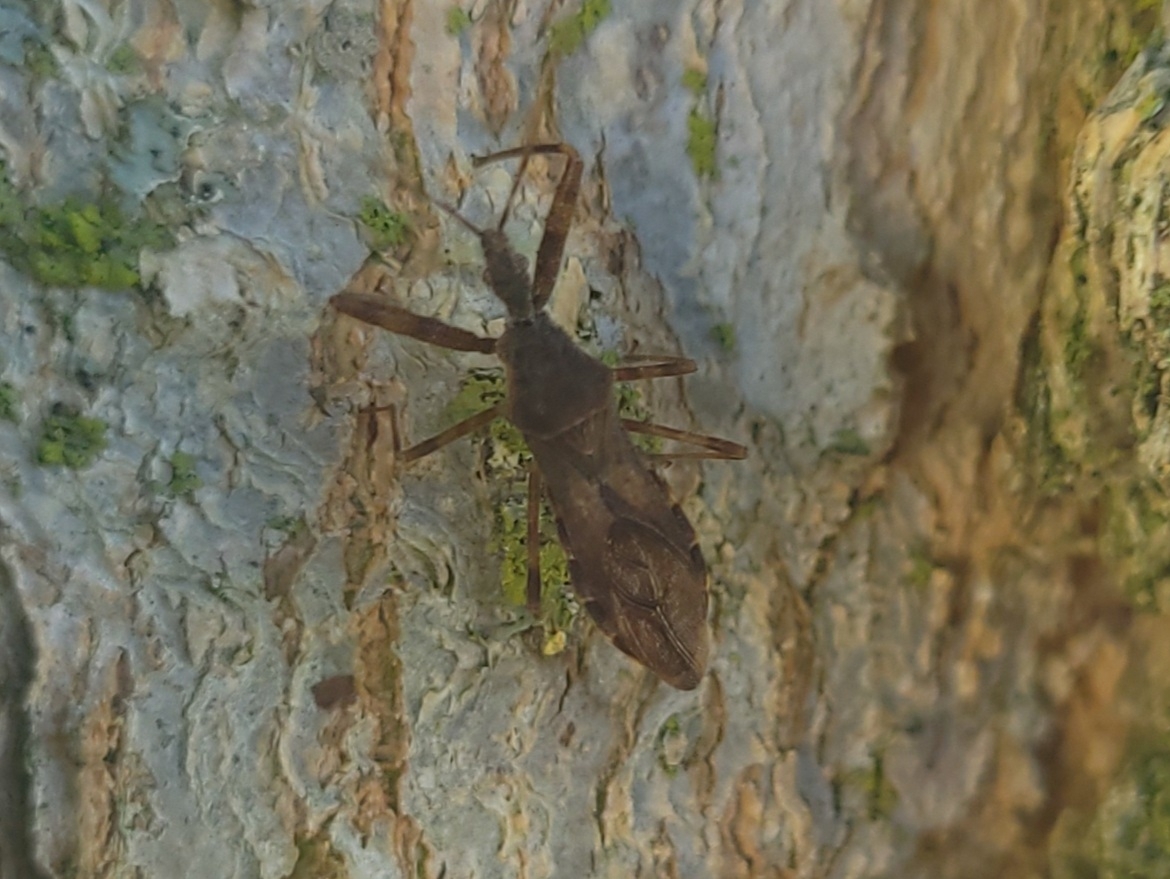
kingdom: Animalia
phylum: Arthropoda
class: Insecta
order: Hemiptera
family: Reduviidae
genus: Acholla
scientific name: Acholla multispinosa
